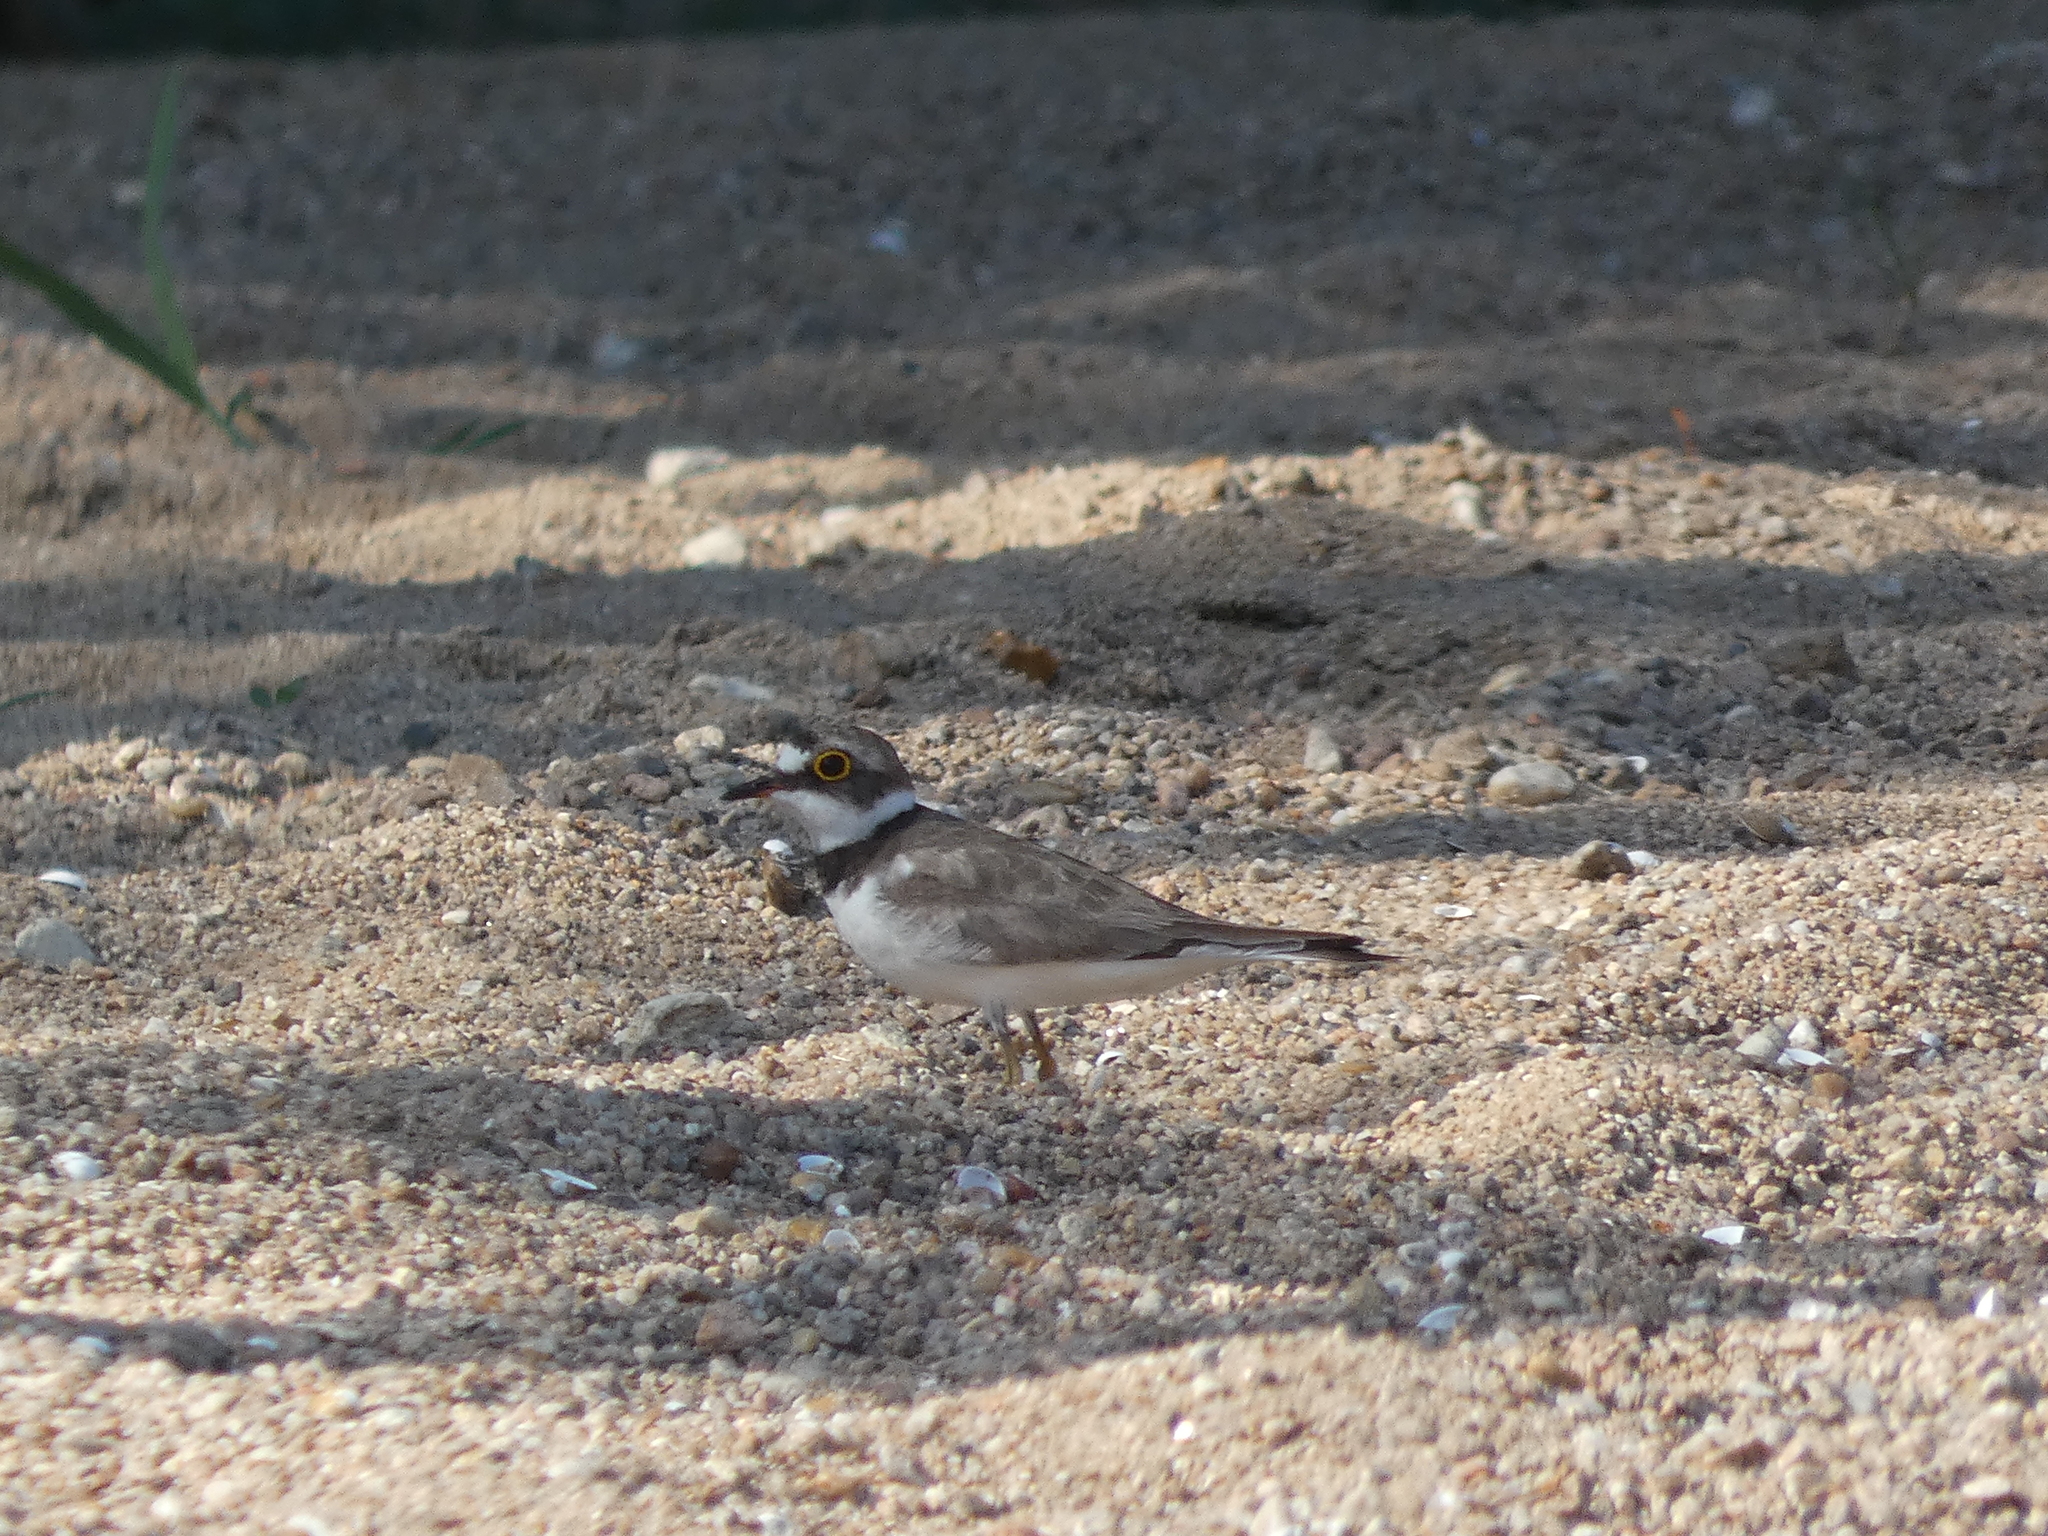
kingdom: Animalia
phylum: Chordata
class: Aves
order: Charadriiformes
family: Charadriidae
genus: Charadrius
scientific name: Charadrius dubius
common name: Little ringed plover
